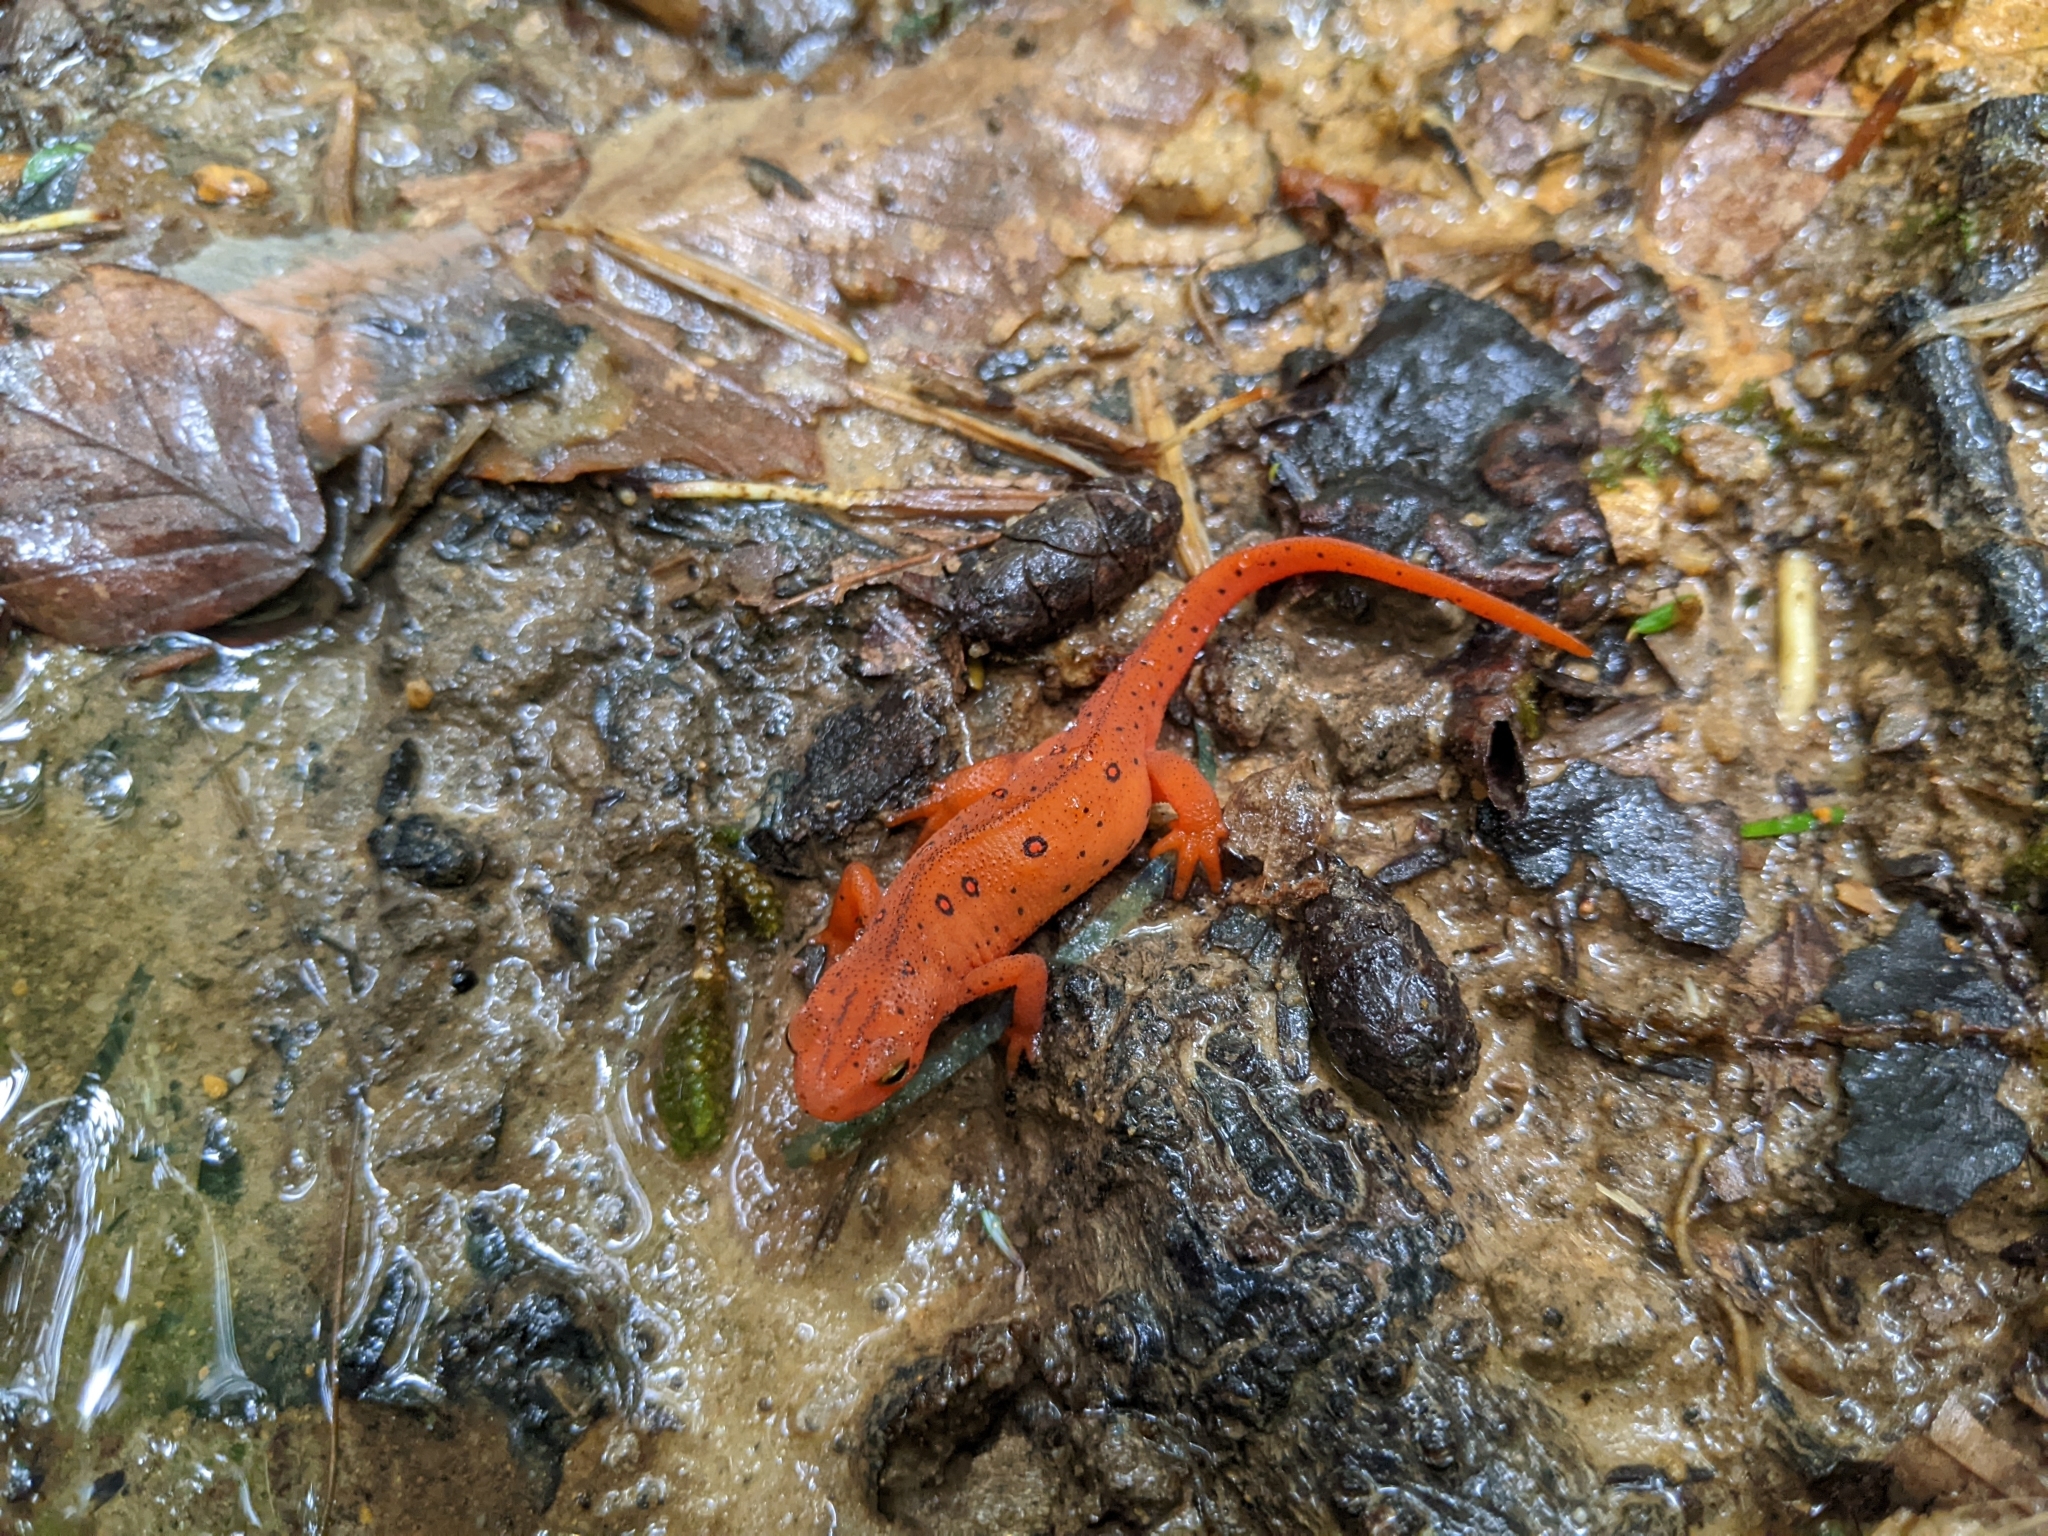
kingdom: Animalia
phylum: Chordata
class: Amphibia
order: Caudata
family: Salamandridae
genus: Notophthalmus
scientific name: Notophthalmus viridescens
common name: Eastern newt
